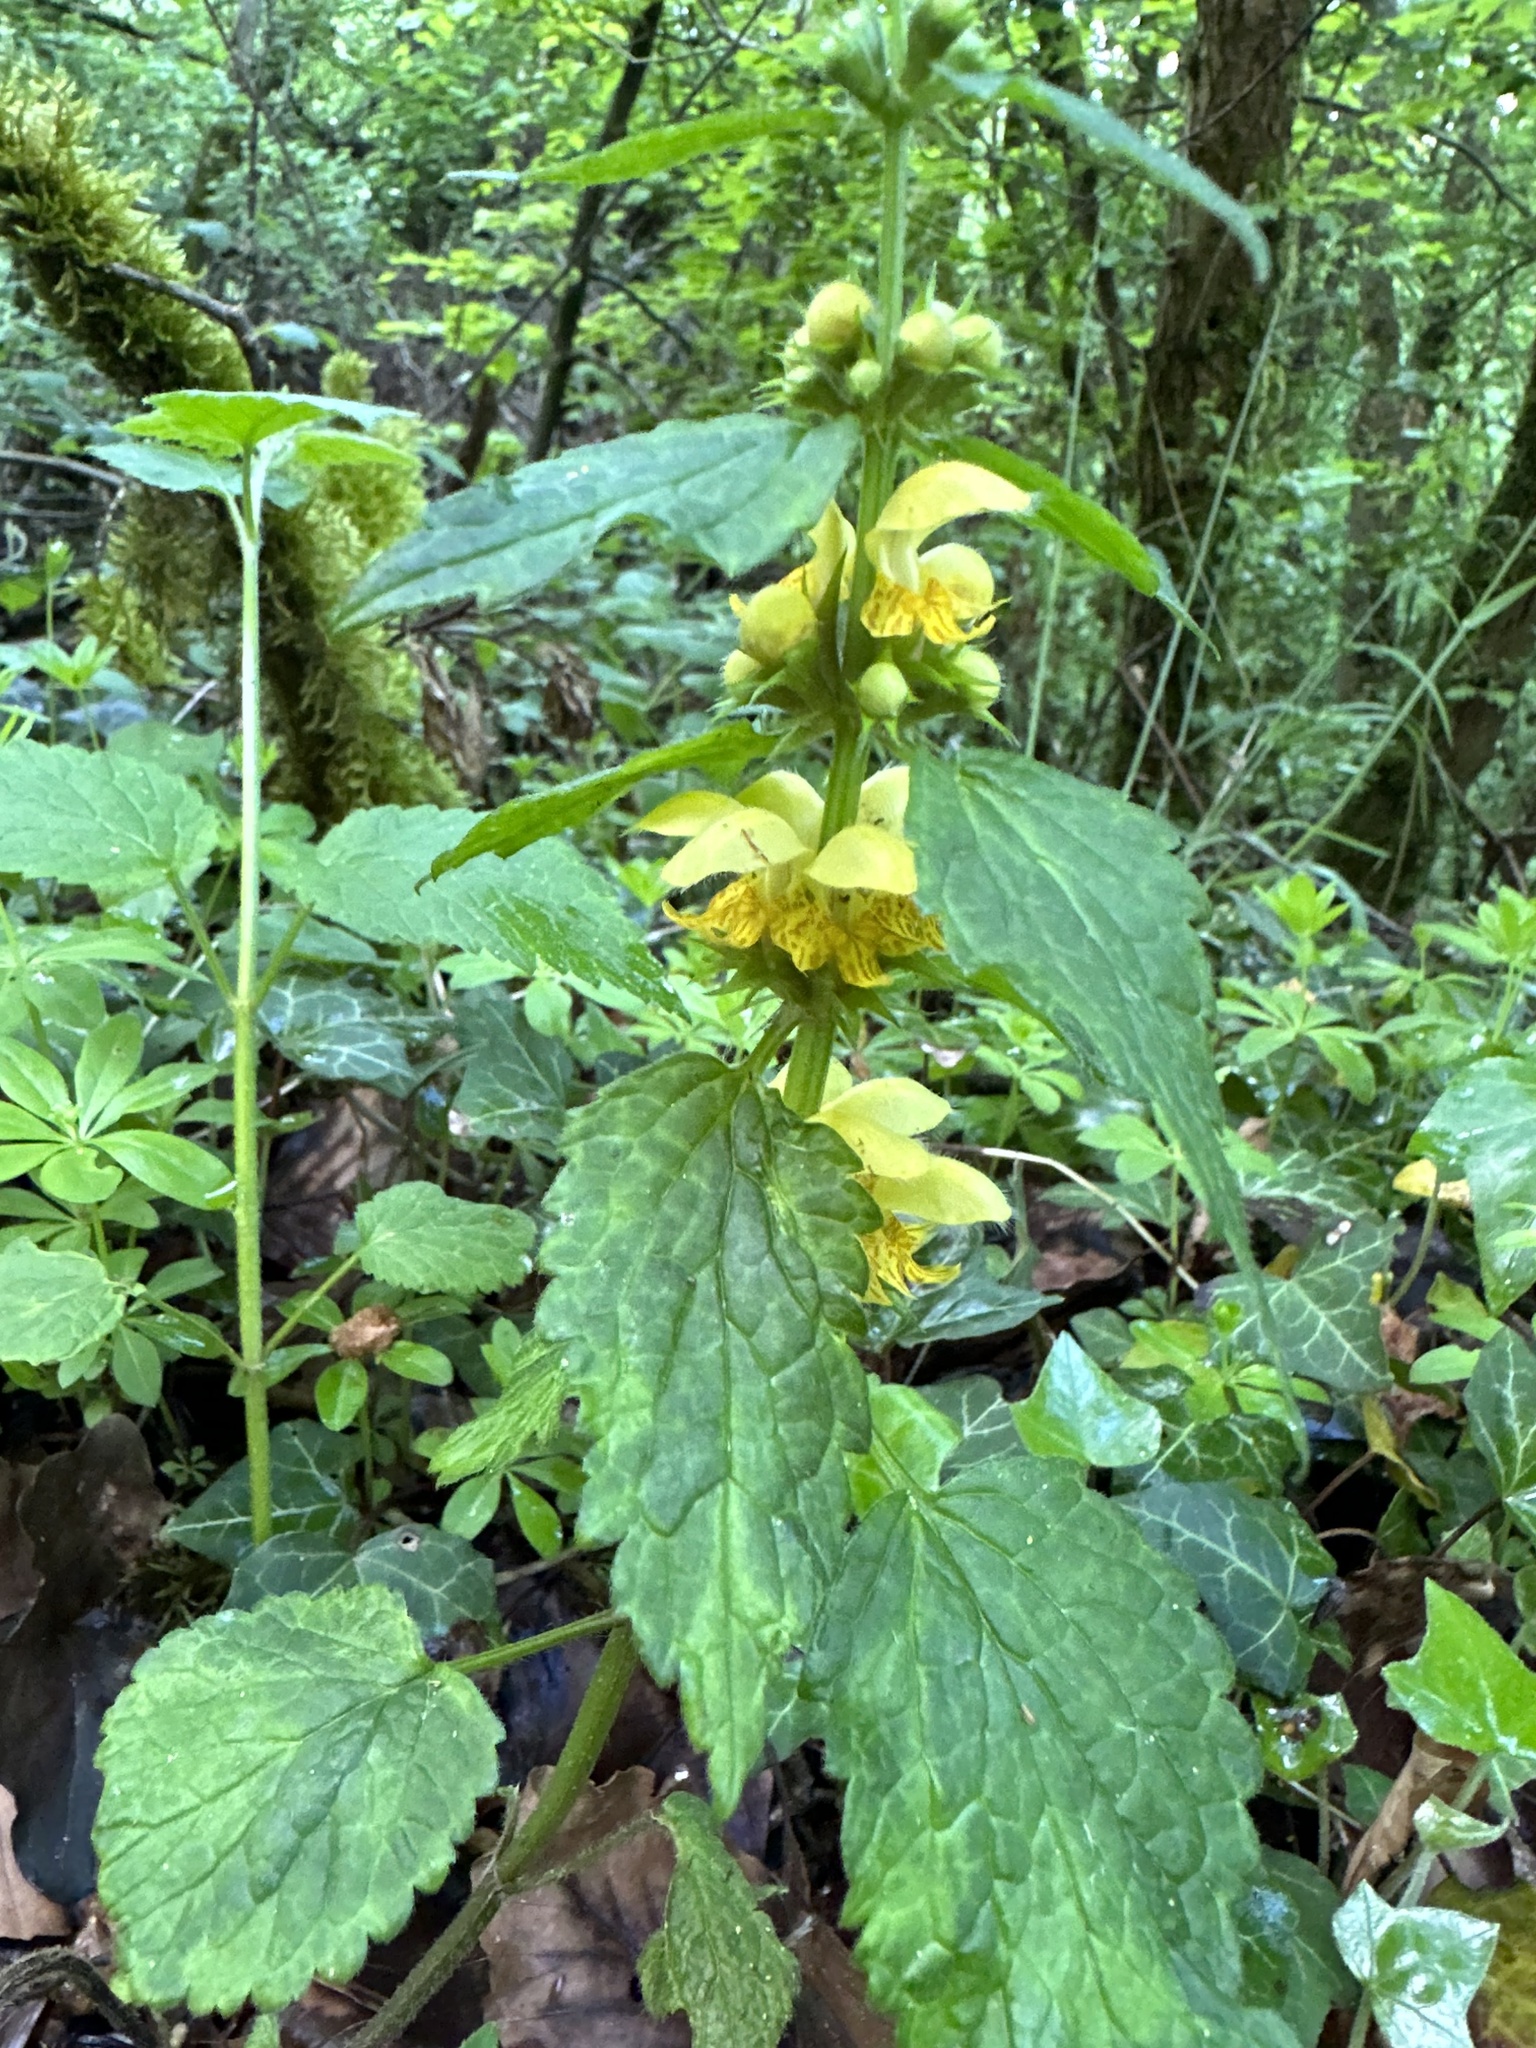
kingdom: Plantae
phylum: Tracheophyta
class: Magnoliopsida
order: Lamiales
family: Lamiaceae
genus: Lamium
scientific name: Lamium galeobdolon
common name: Yellow archangel
